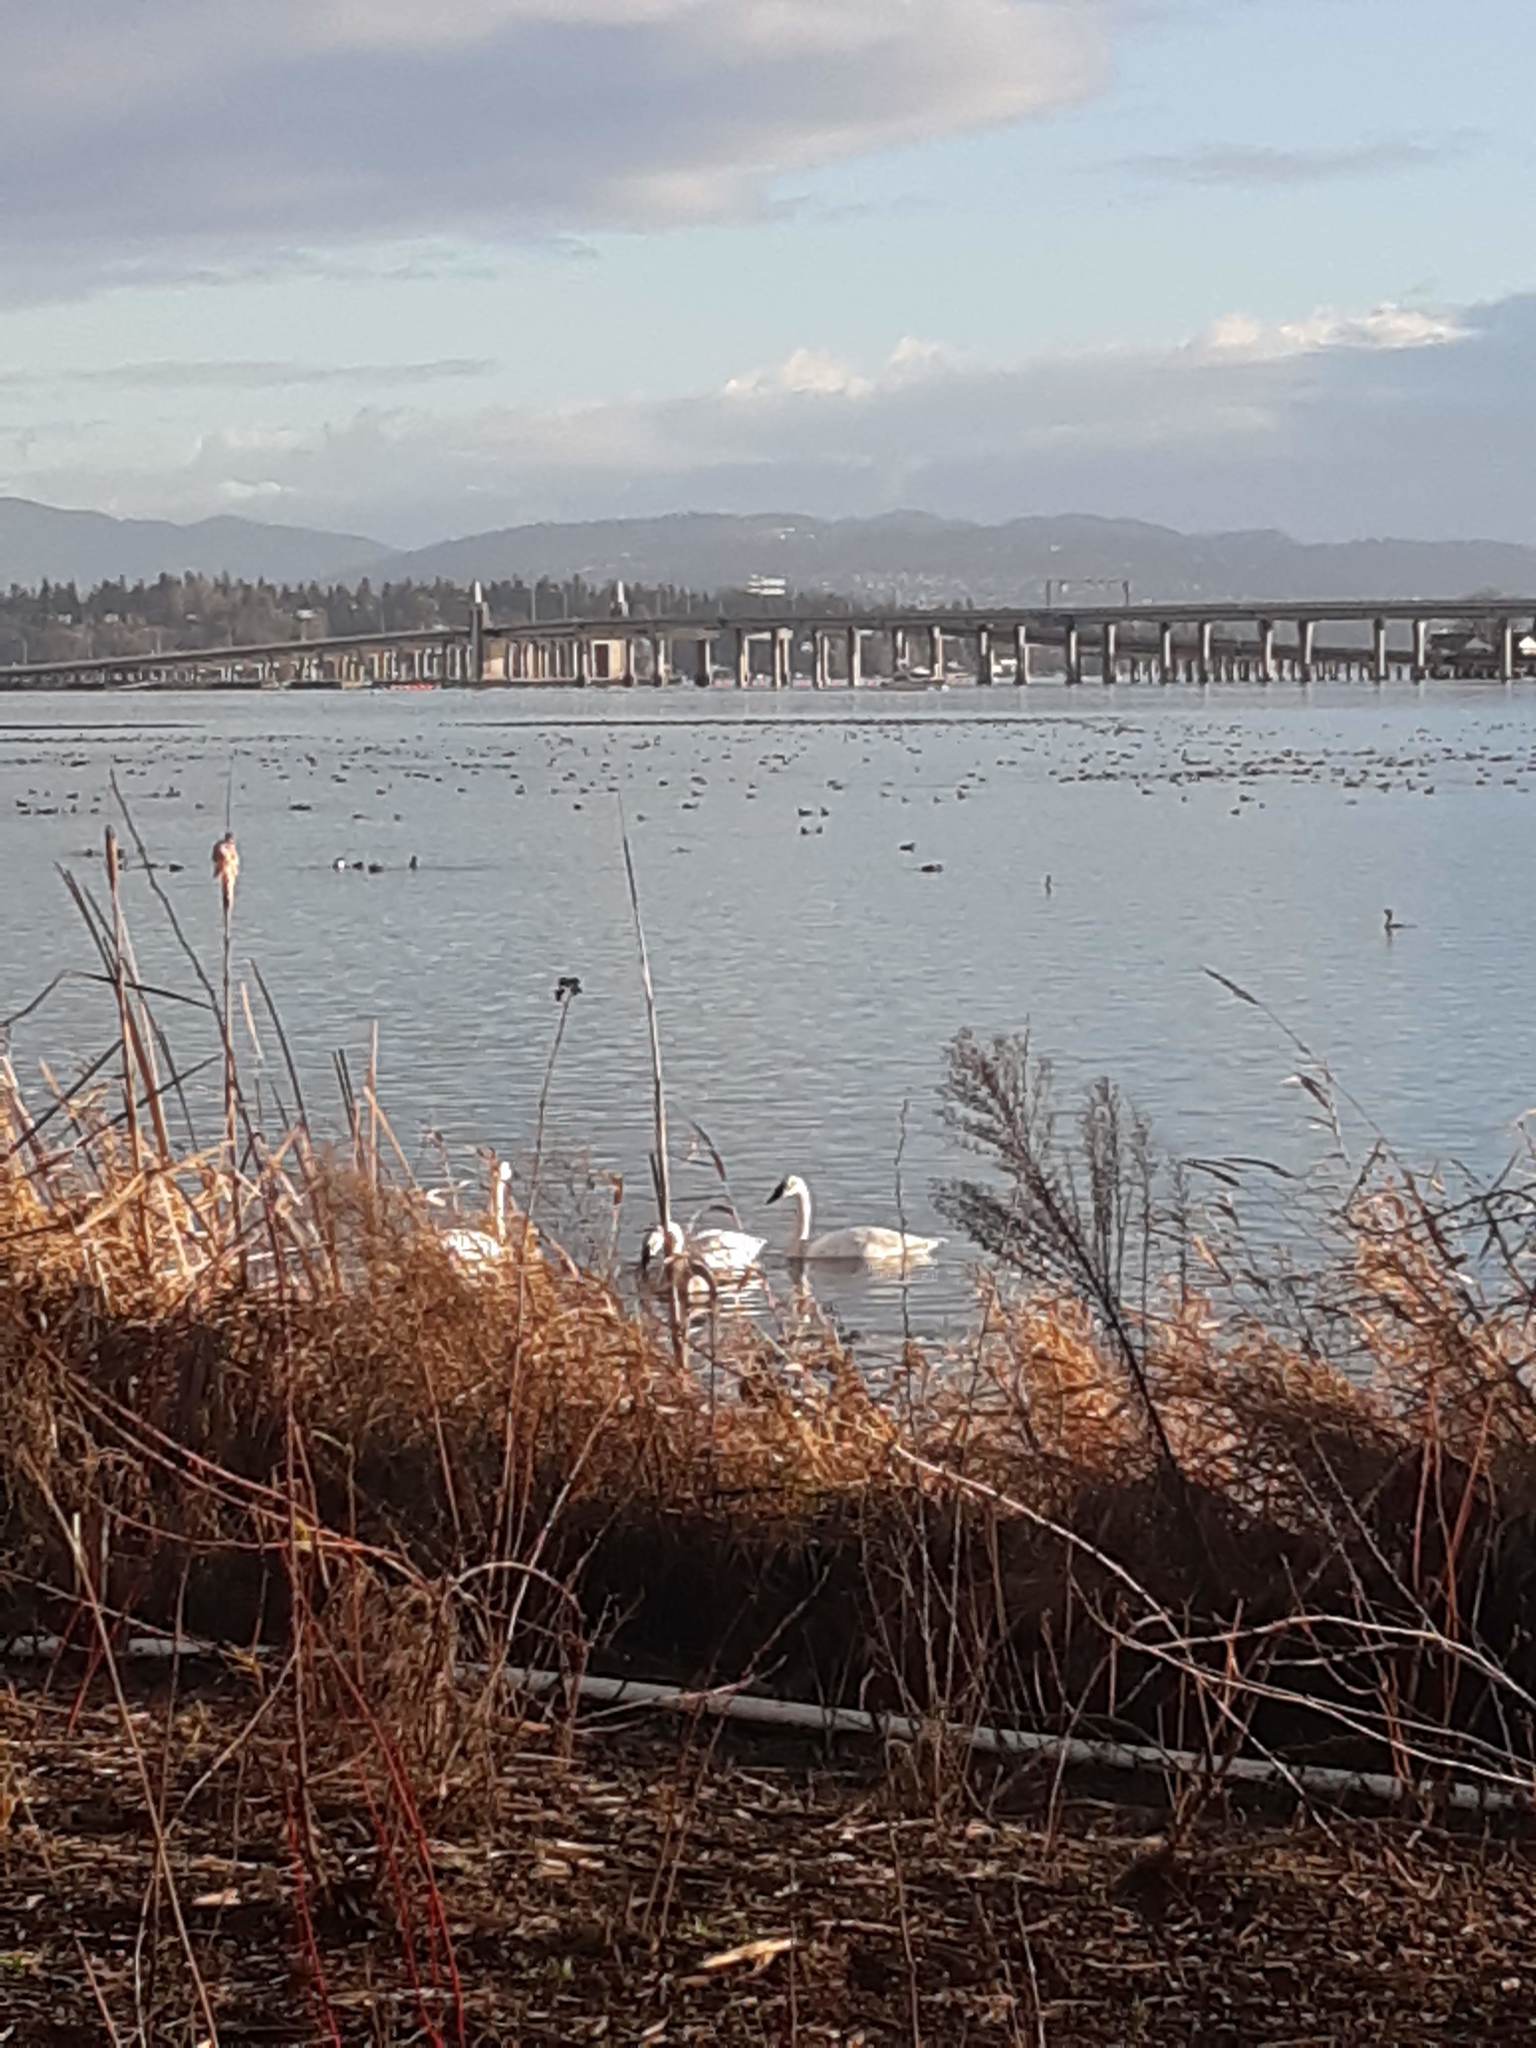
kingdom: Animalia
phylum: Chordata
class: Aves
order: Anseriformes
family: Anatidae
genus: Cygnus
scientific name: Cygnus buccinator
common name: Trumpeter swan
